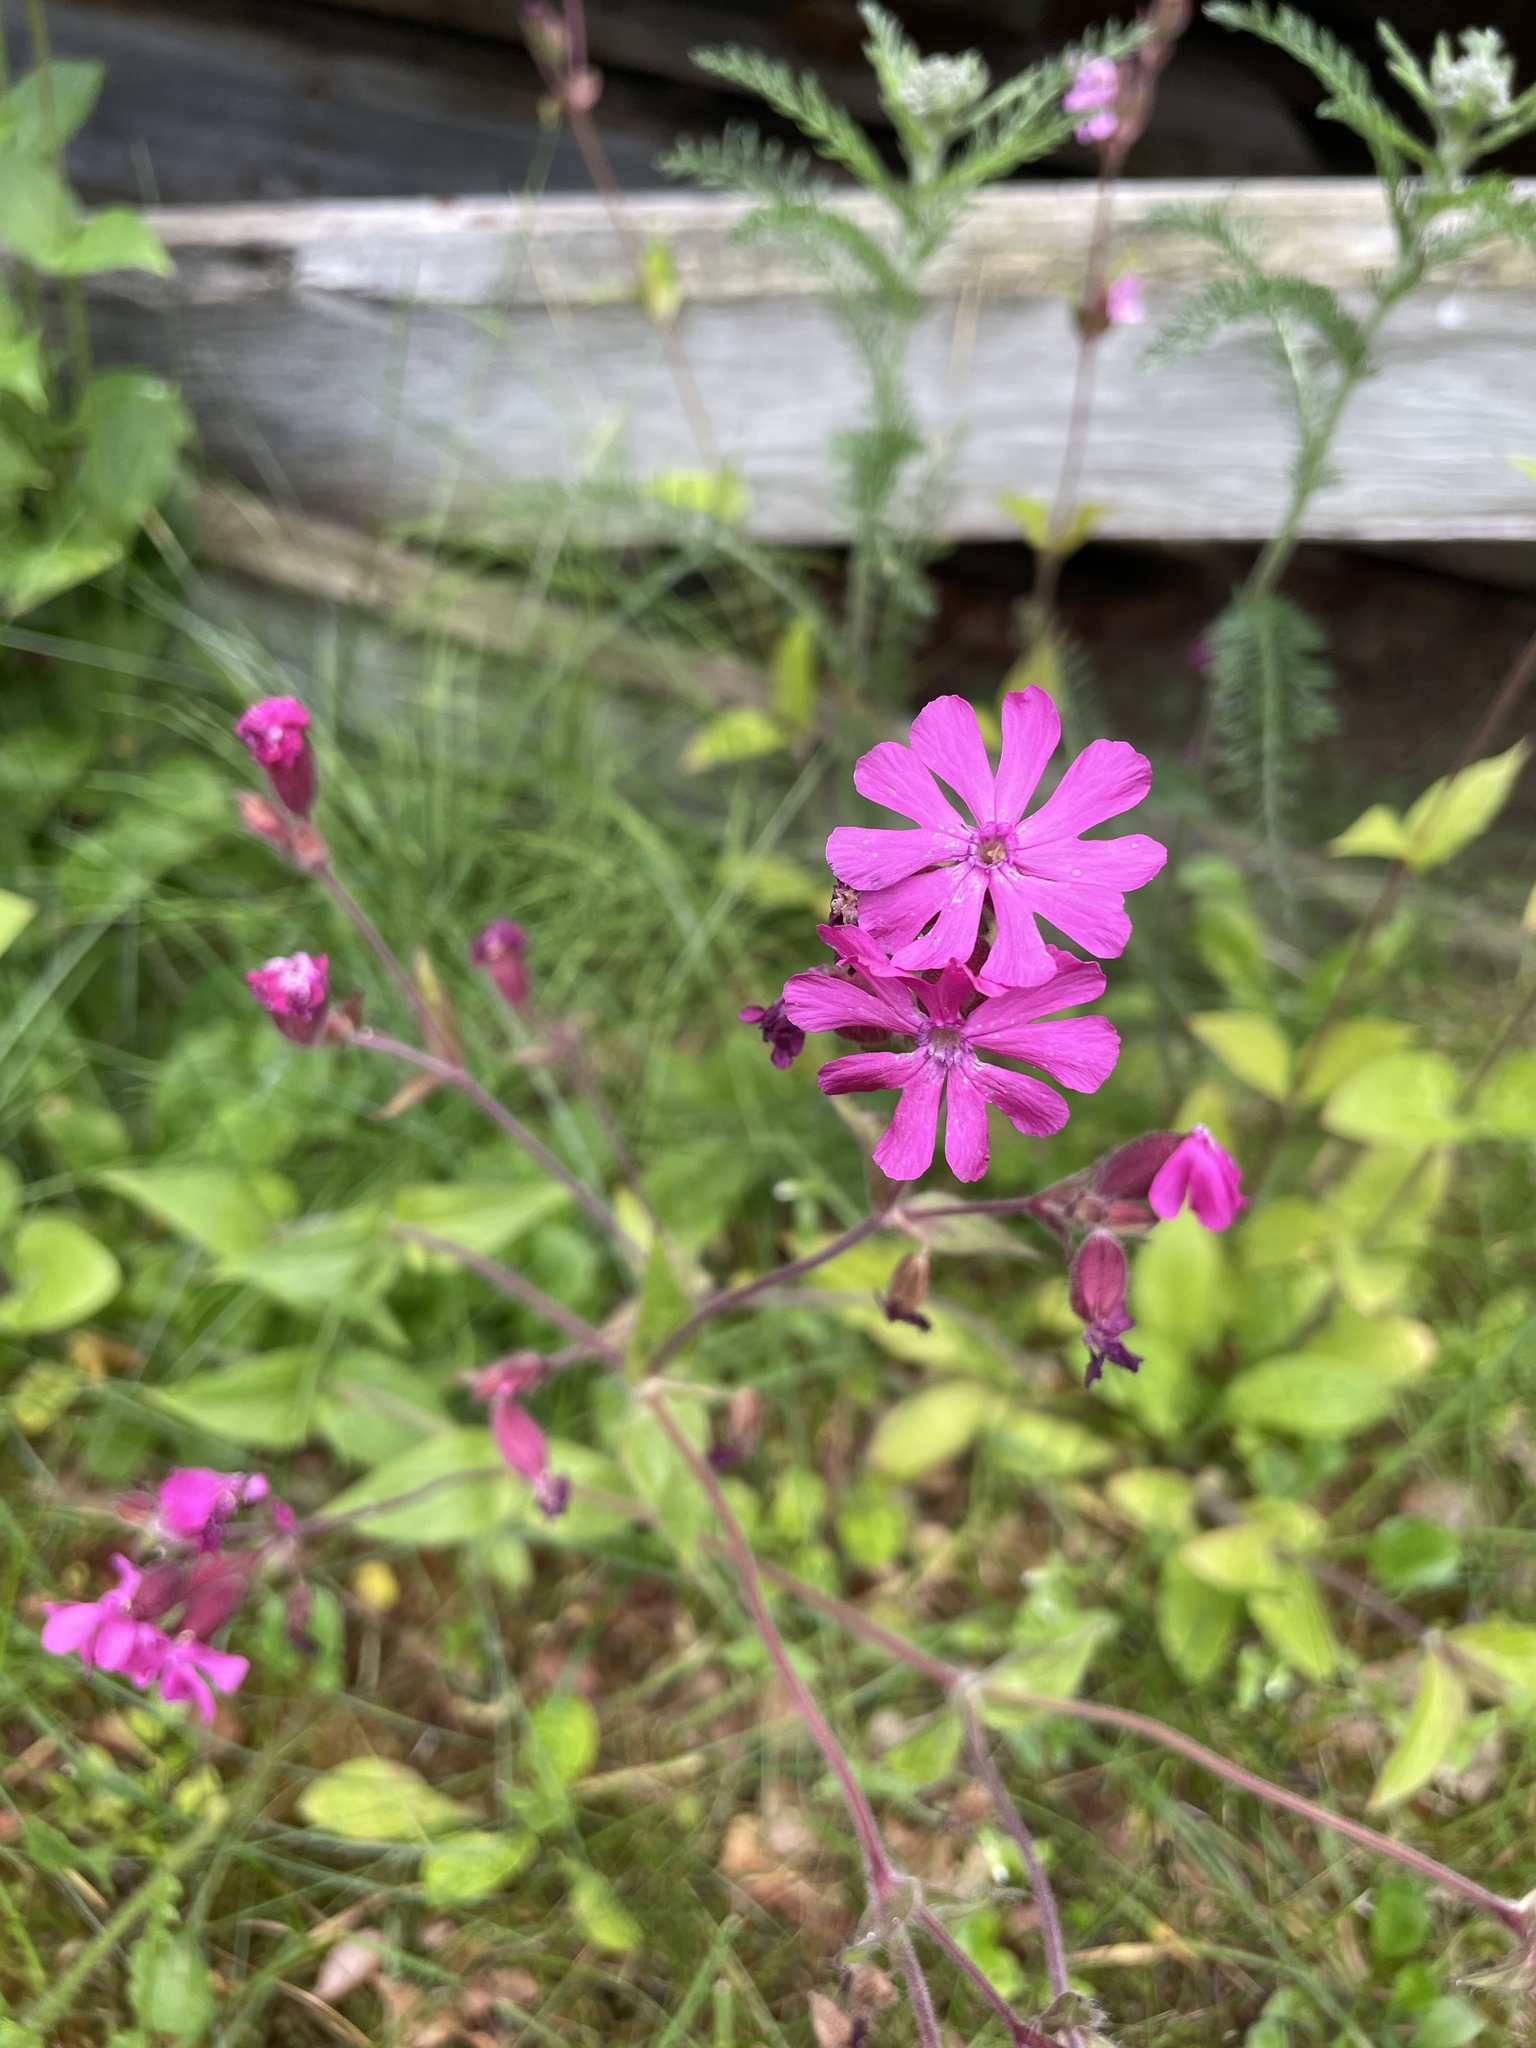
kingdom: Plantae
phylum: Tracheophyta
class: Magnoliopsida
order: Caryophyllales
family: Caryophyllaceae
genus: Silene
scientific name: Silene dioica
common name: Red campion
